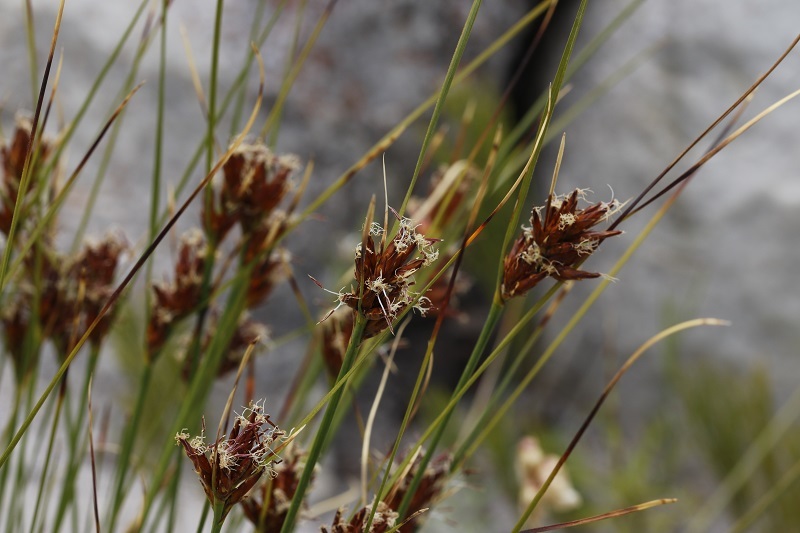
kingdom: Plantae
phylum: Tracheophyta
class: Liliopsida
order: Poales
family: Cyperaceae
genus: Schoenus
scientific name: Schoenus compar
